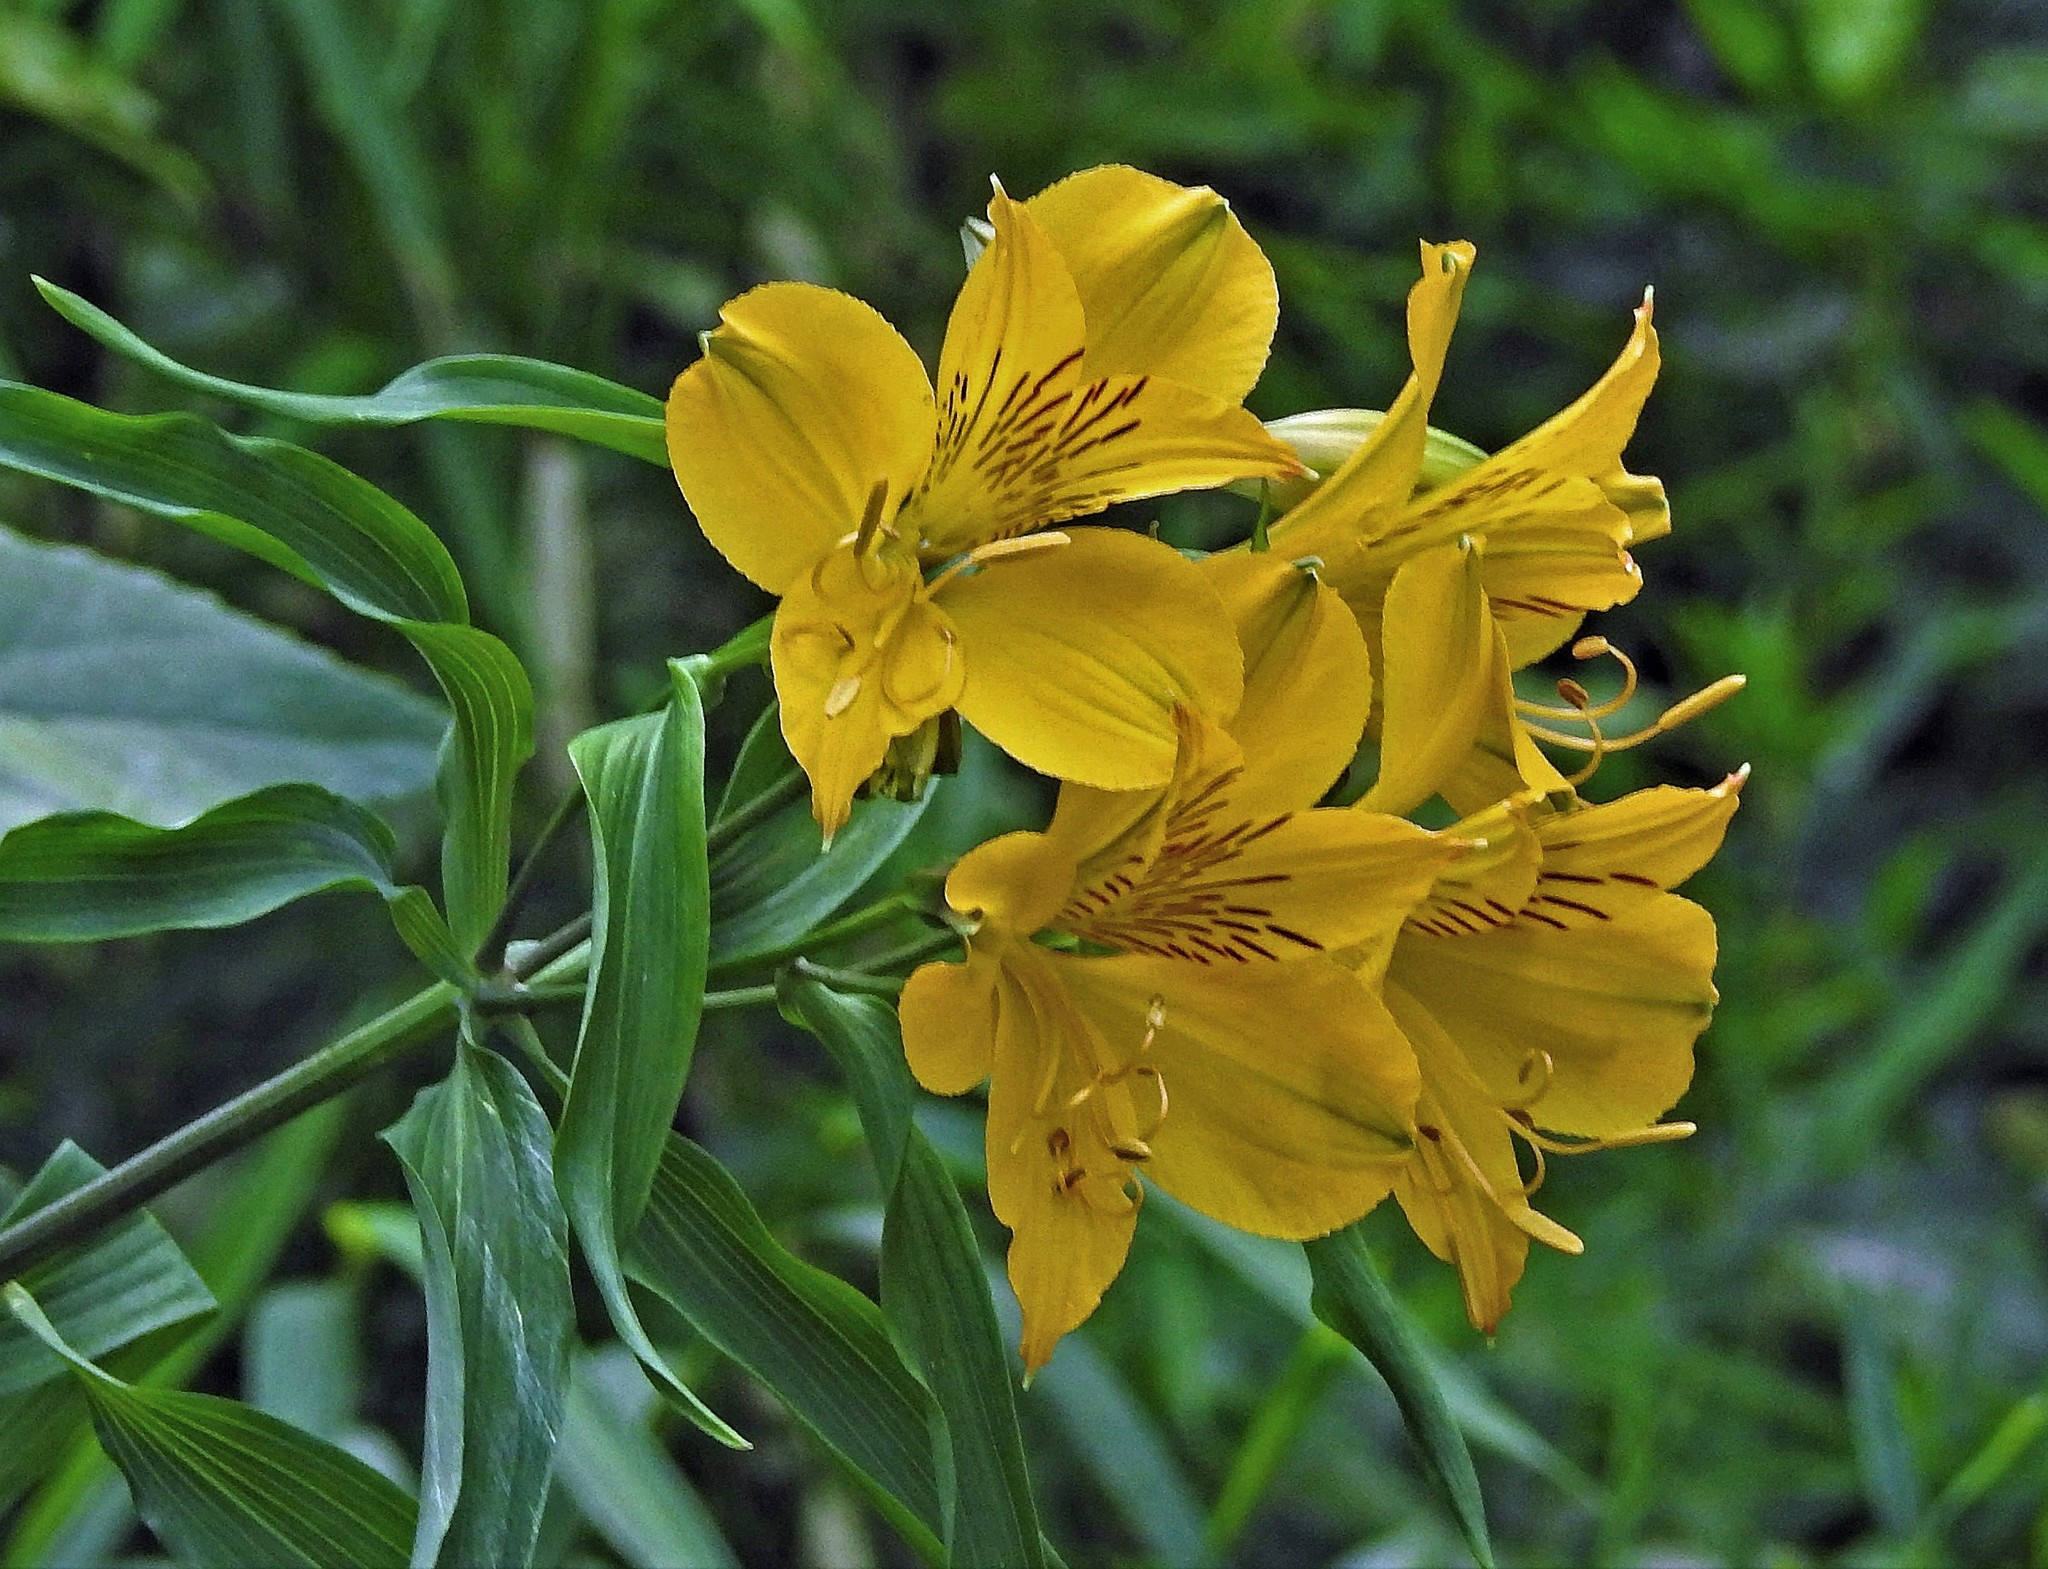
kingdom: Plantae
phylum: Tracheophyta
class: Liliopsida
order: Liliales
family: Alstroemeriaceae
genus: Alstroemeria
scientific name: Alstroemeria aurea
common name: Peruvian lily
